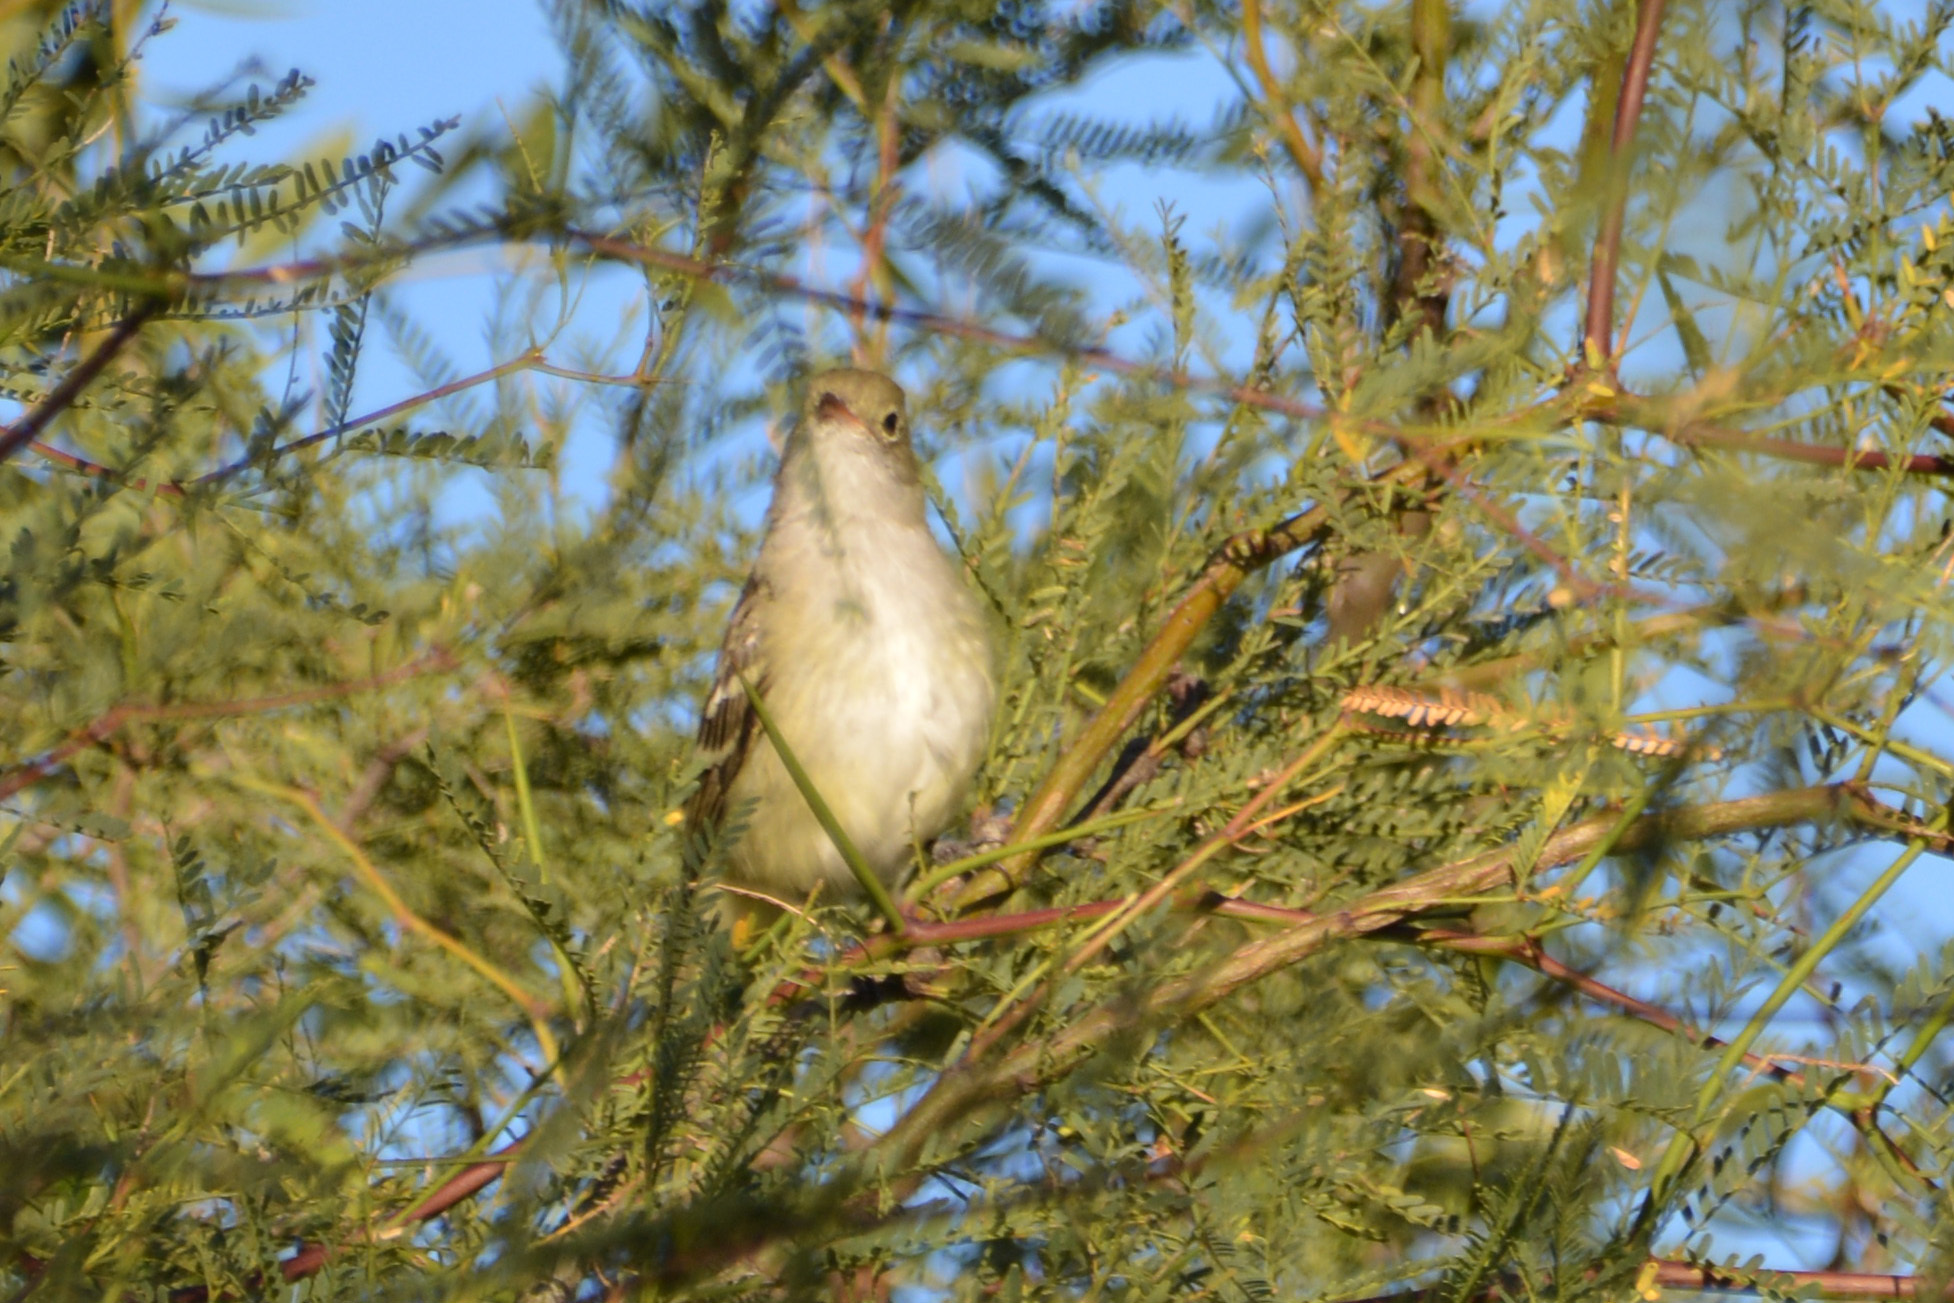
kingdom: Animalia
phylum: Chordata
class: Aves
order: Passeriformes
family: Tyrannidae
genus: Elaenia
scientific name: Elaenia parvirostris
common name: Small-billed elaenia
